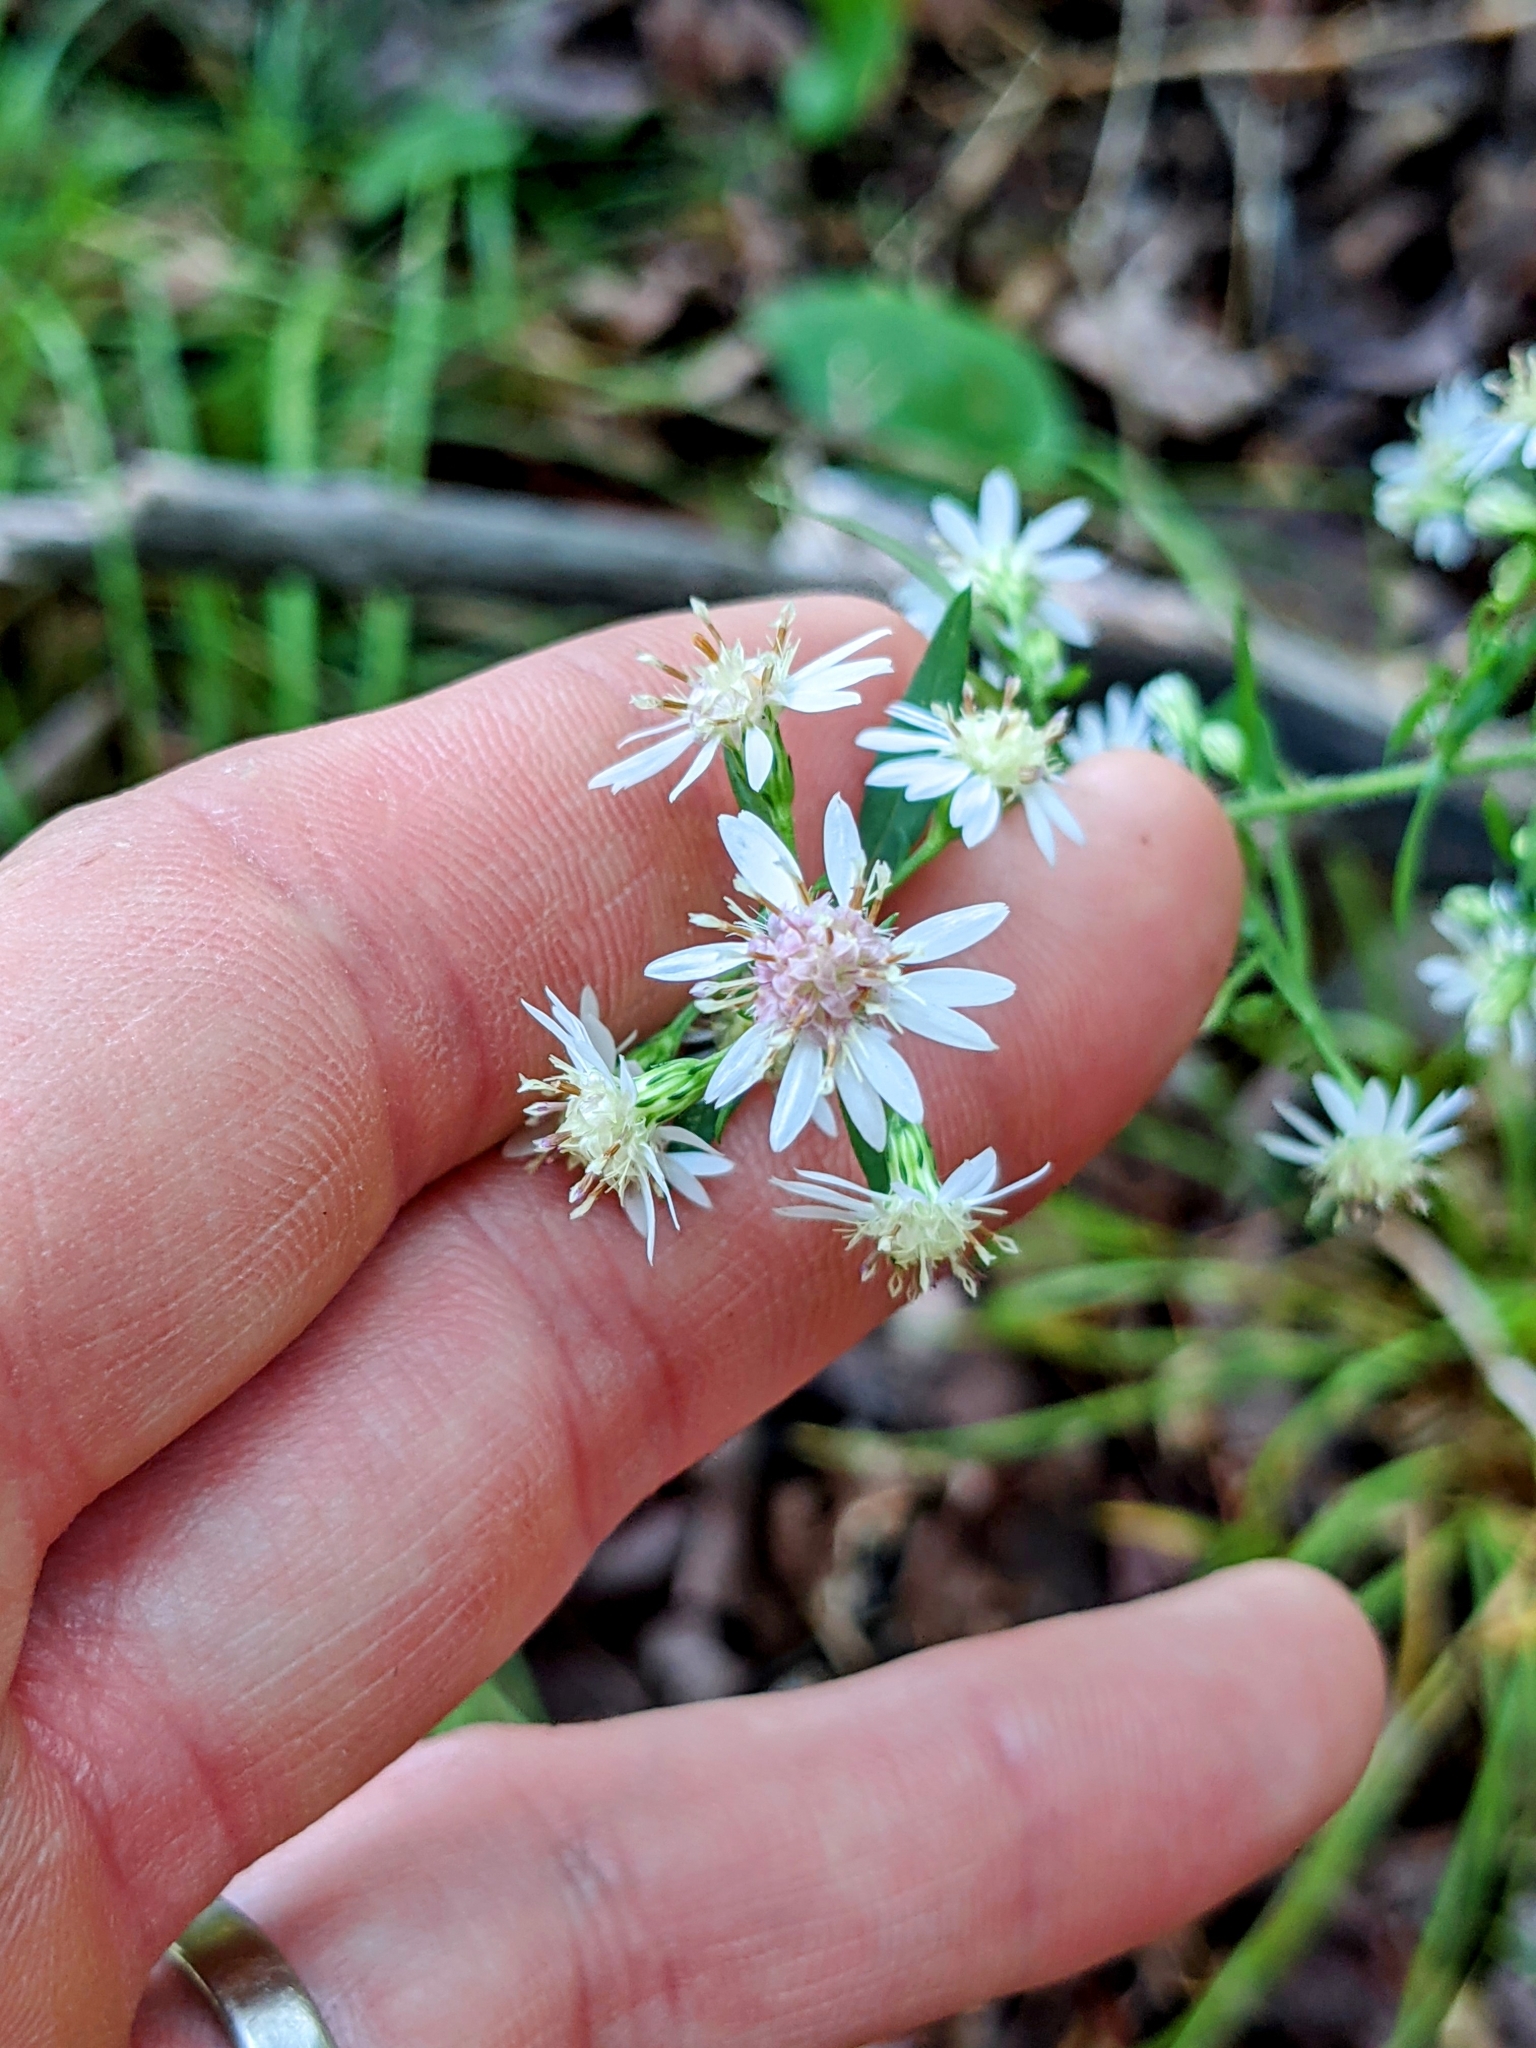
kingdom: Plantae
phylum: Tracheophyta
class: Magnoliopsida
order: Asterales
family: Asteraceae
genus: Symphyotrichum
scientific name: Symphyotrichum lateriflorum
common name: Calico aster
